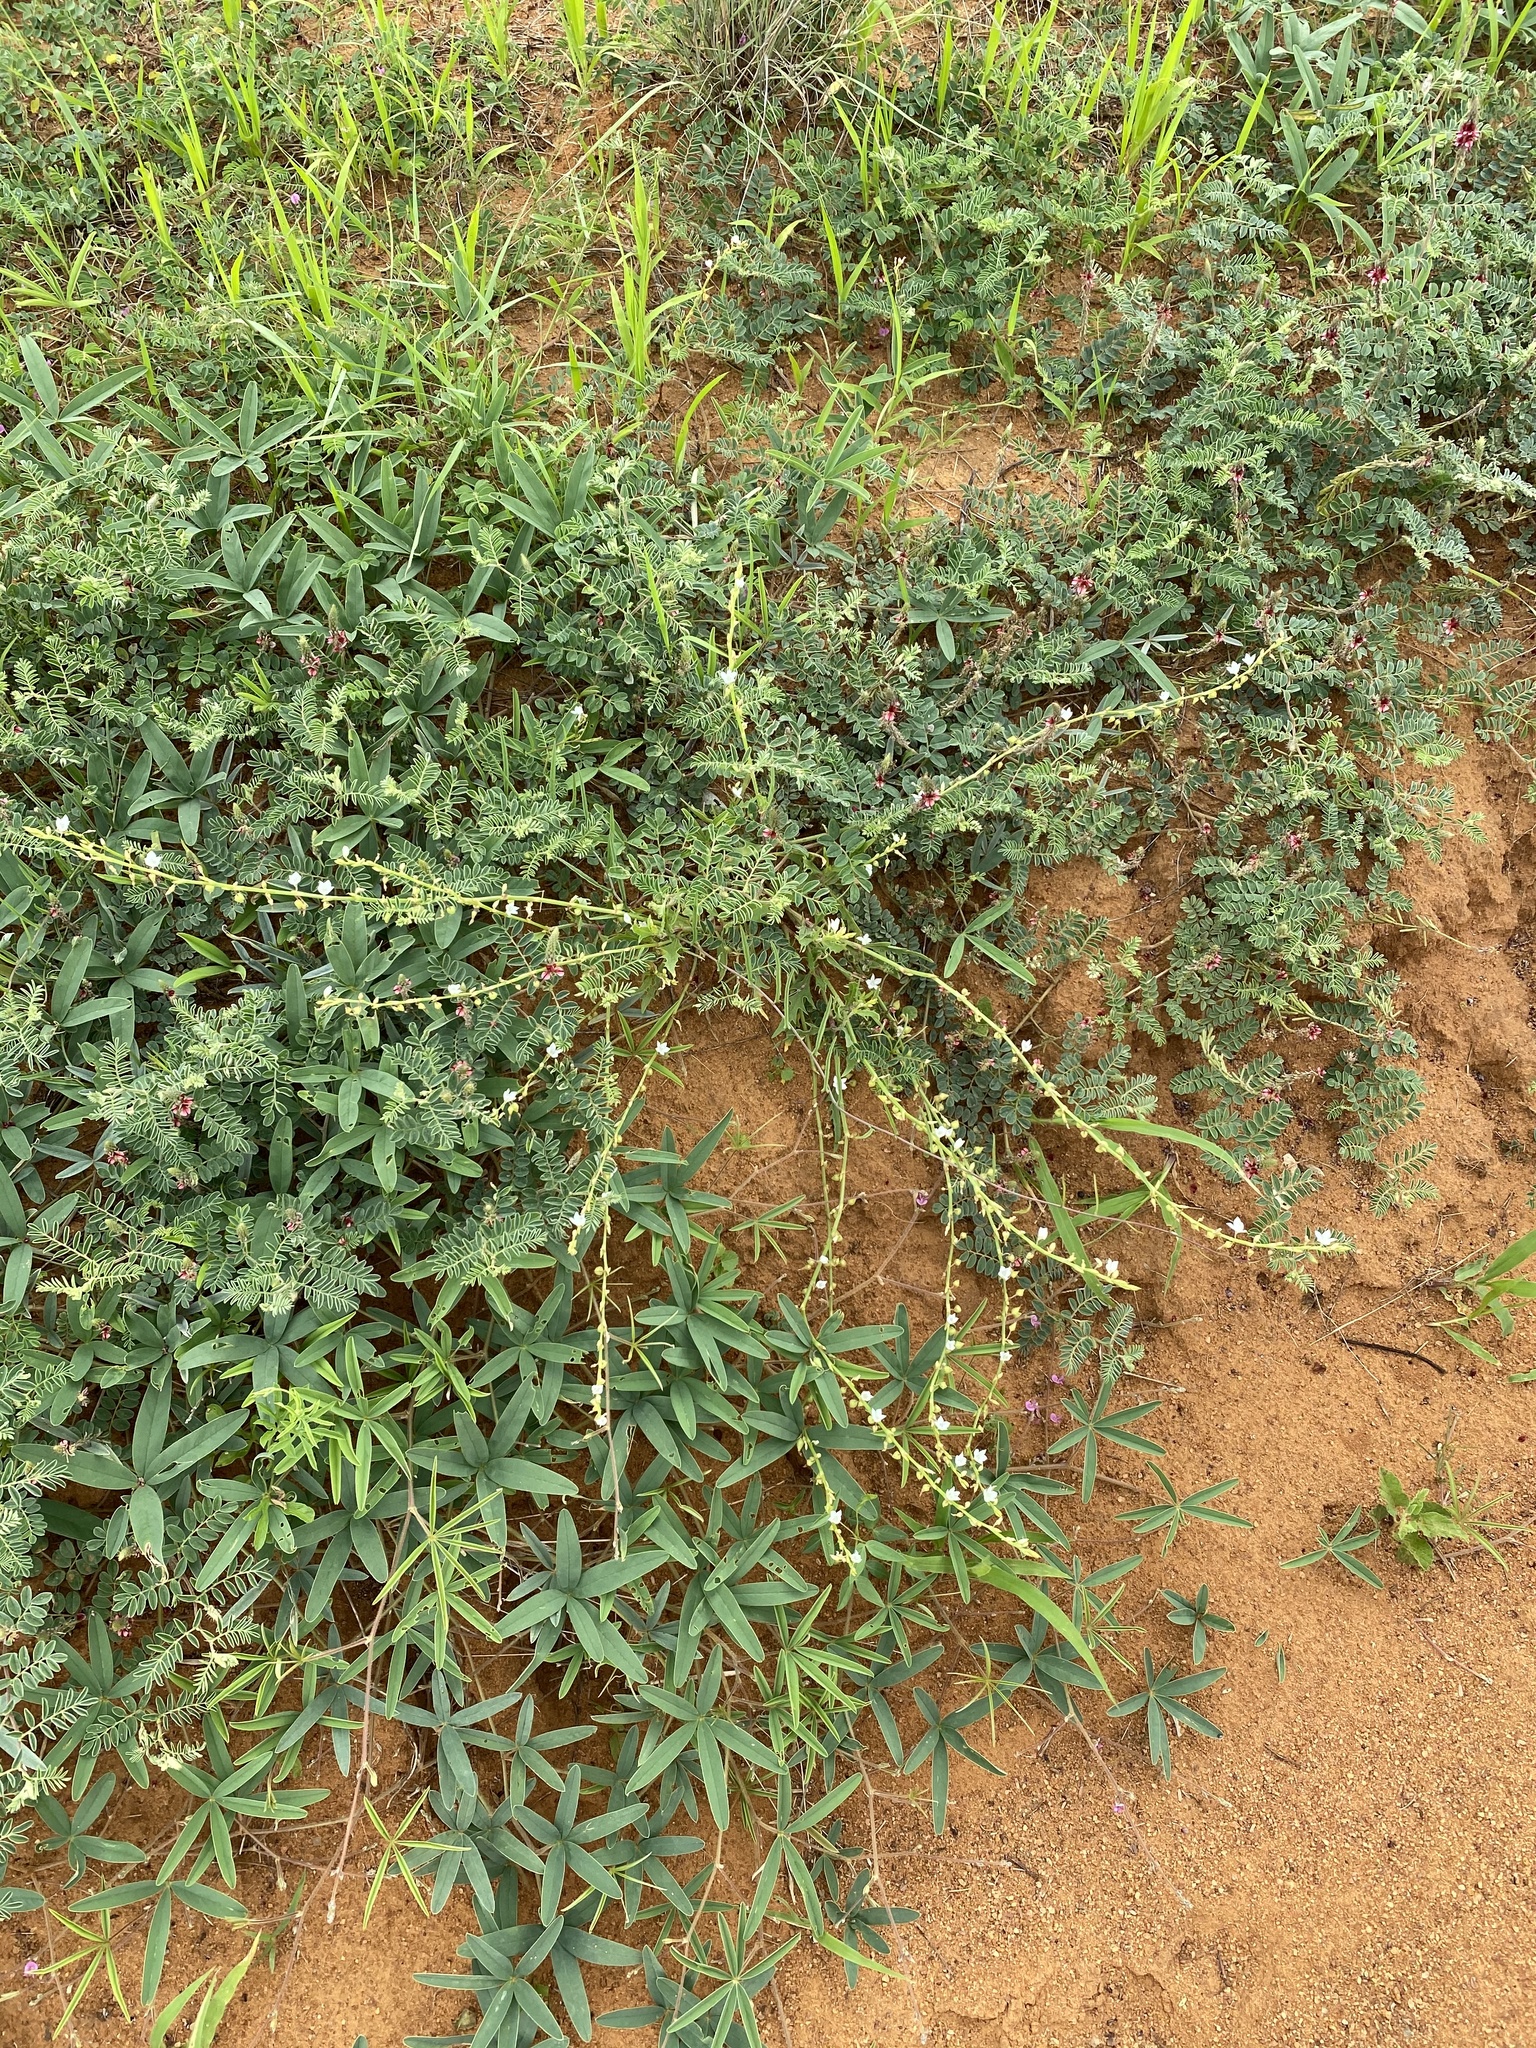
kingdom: Plantae
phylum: Tracheophyta
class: Magnoliopsida
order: Caryophyllales
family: Polygonaceae
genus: Oxygonum
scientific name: Oxygonum alatum
